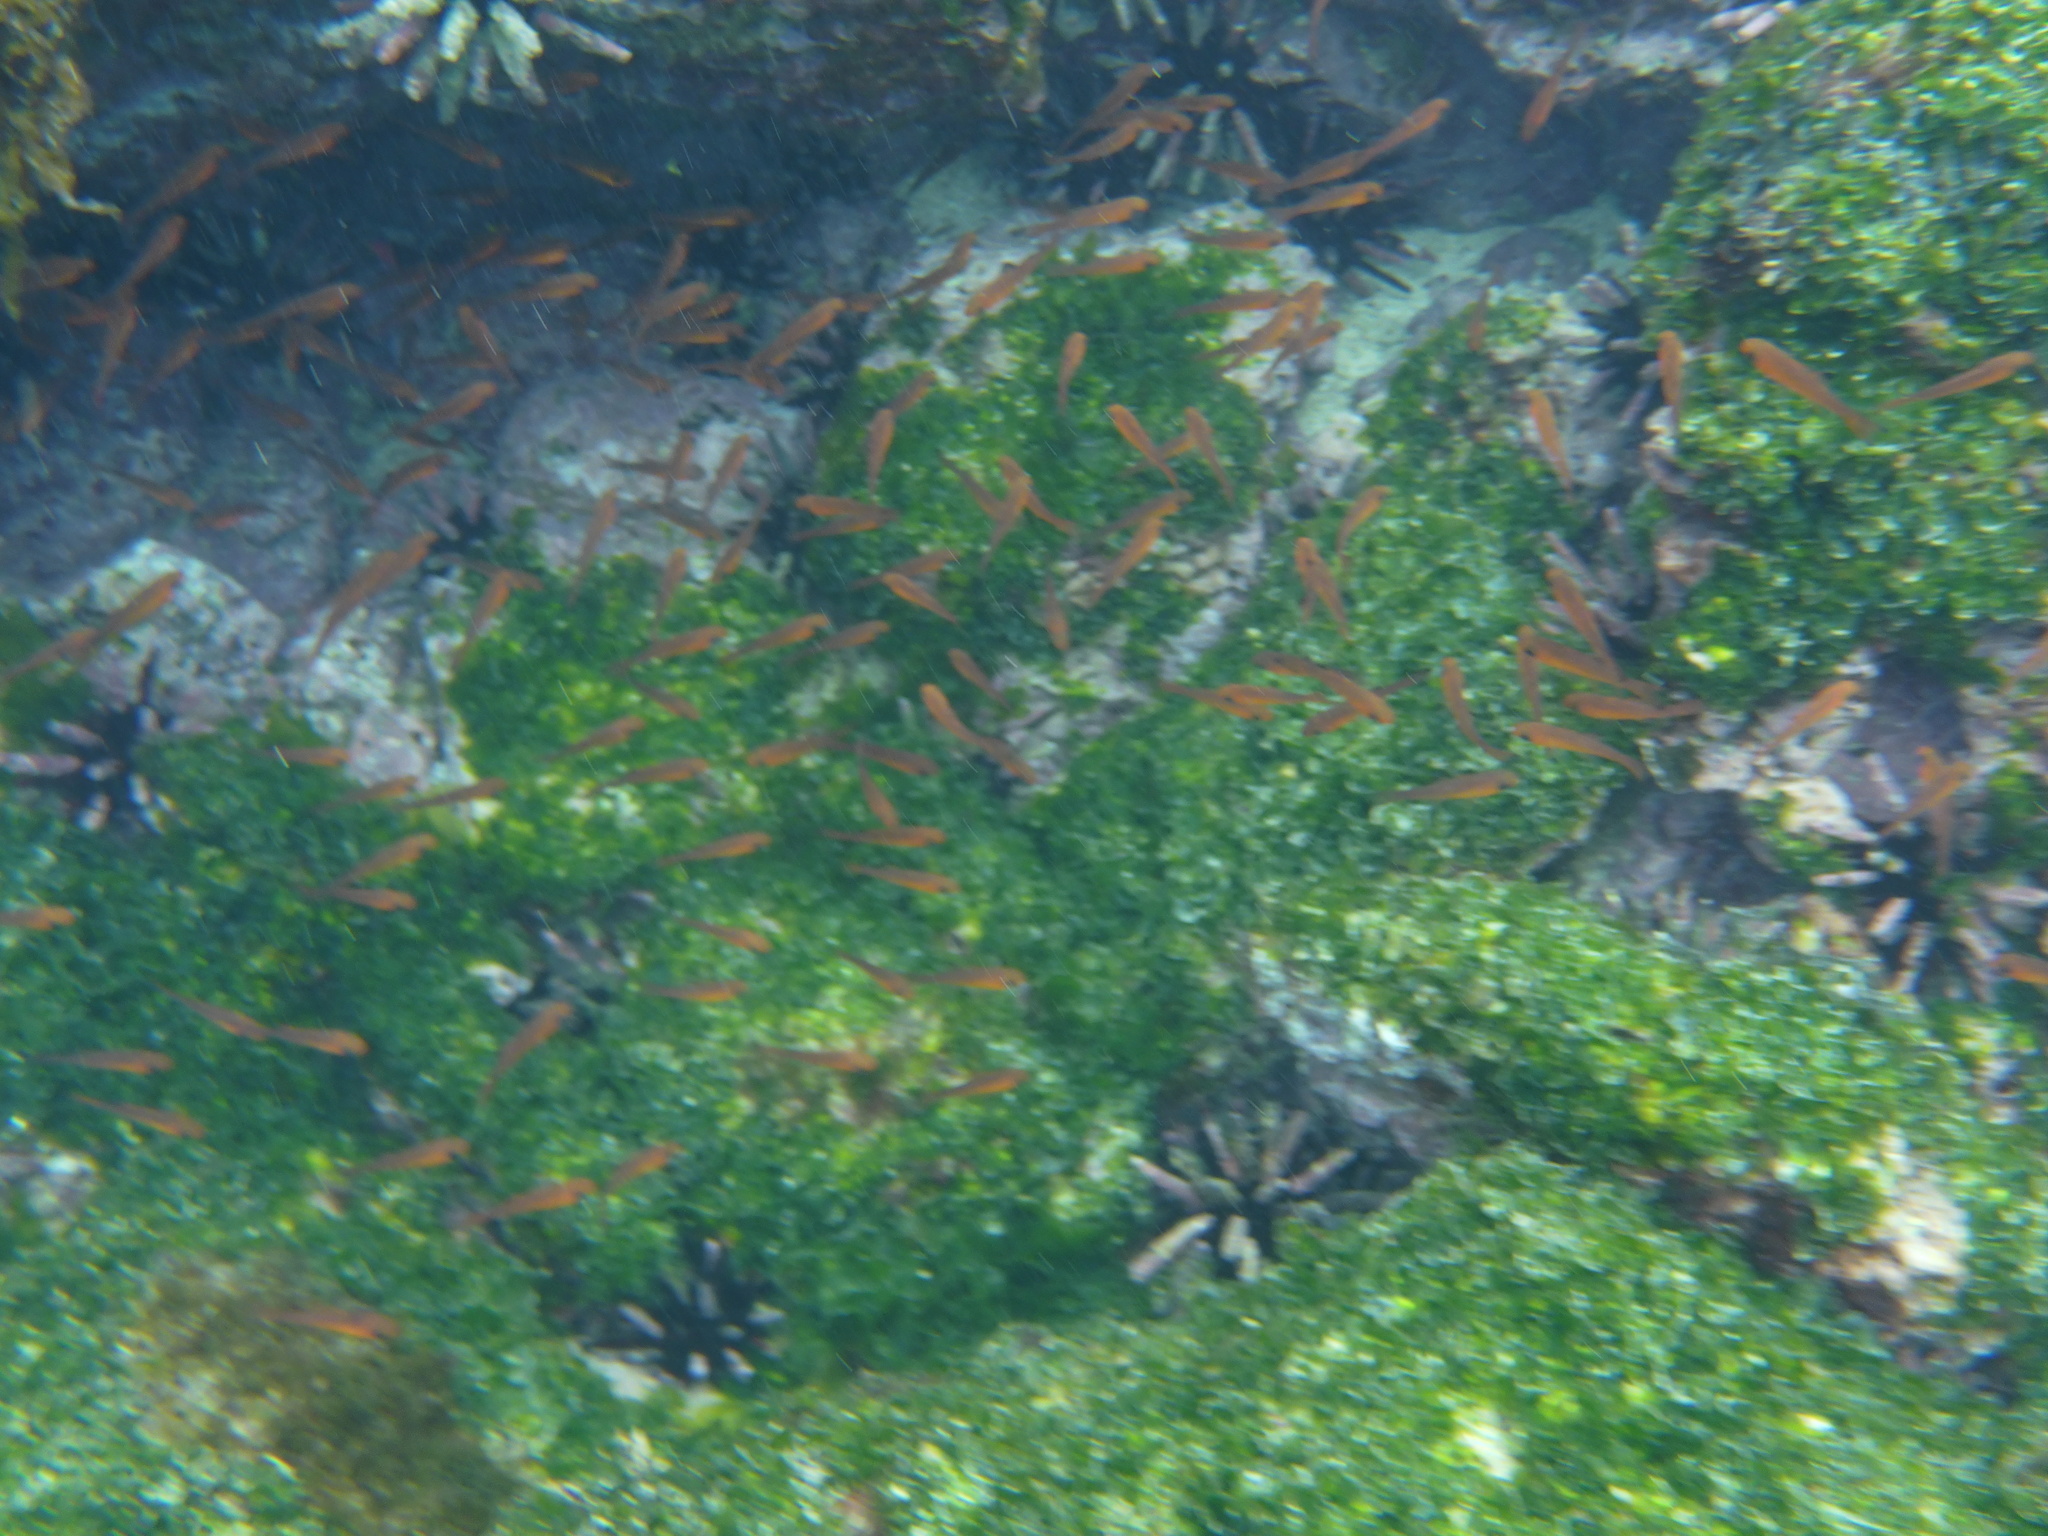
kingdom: Animalia
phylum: Chordata
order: Perciformes
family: Apogonidae
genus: Apogon
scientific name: Apogon atradorsatus
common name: Blacktip cardinalfish
